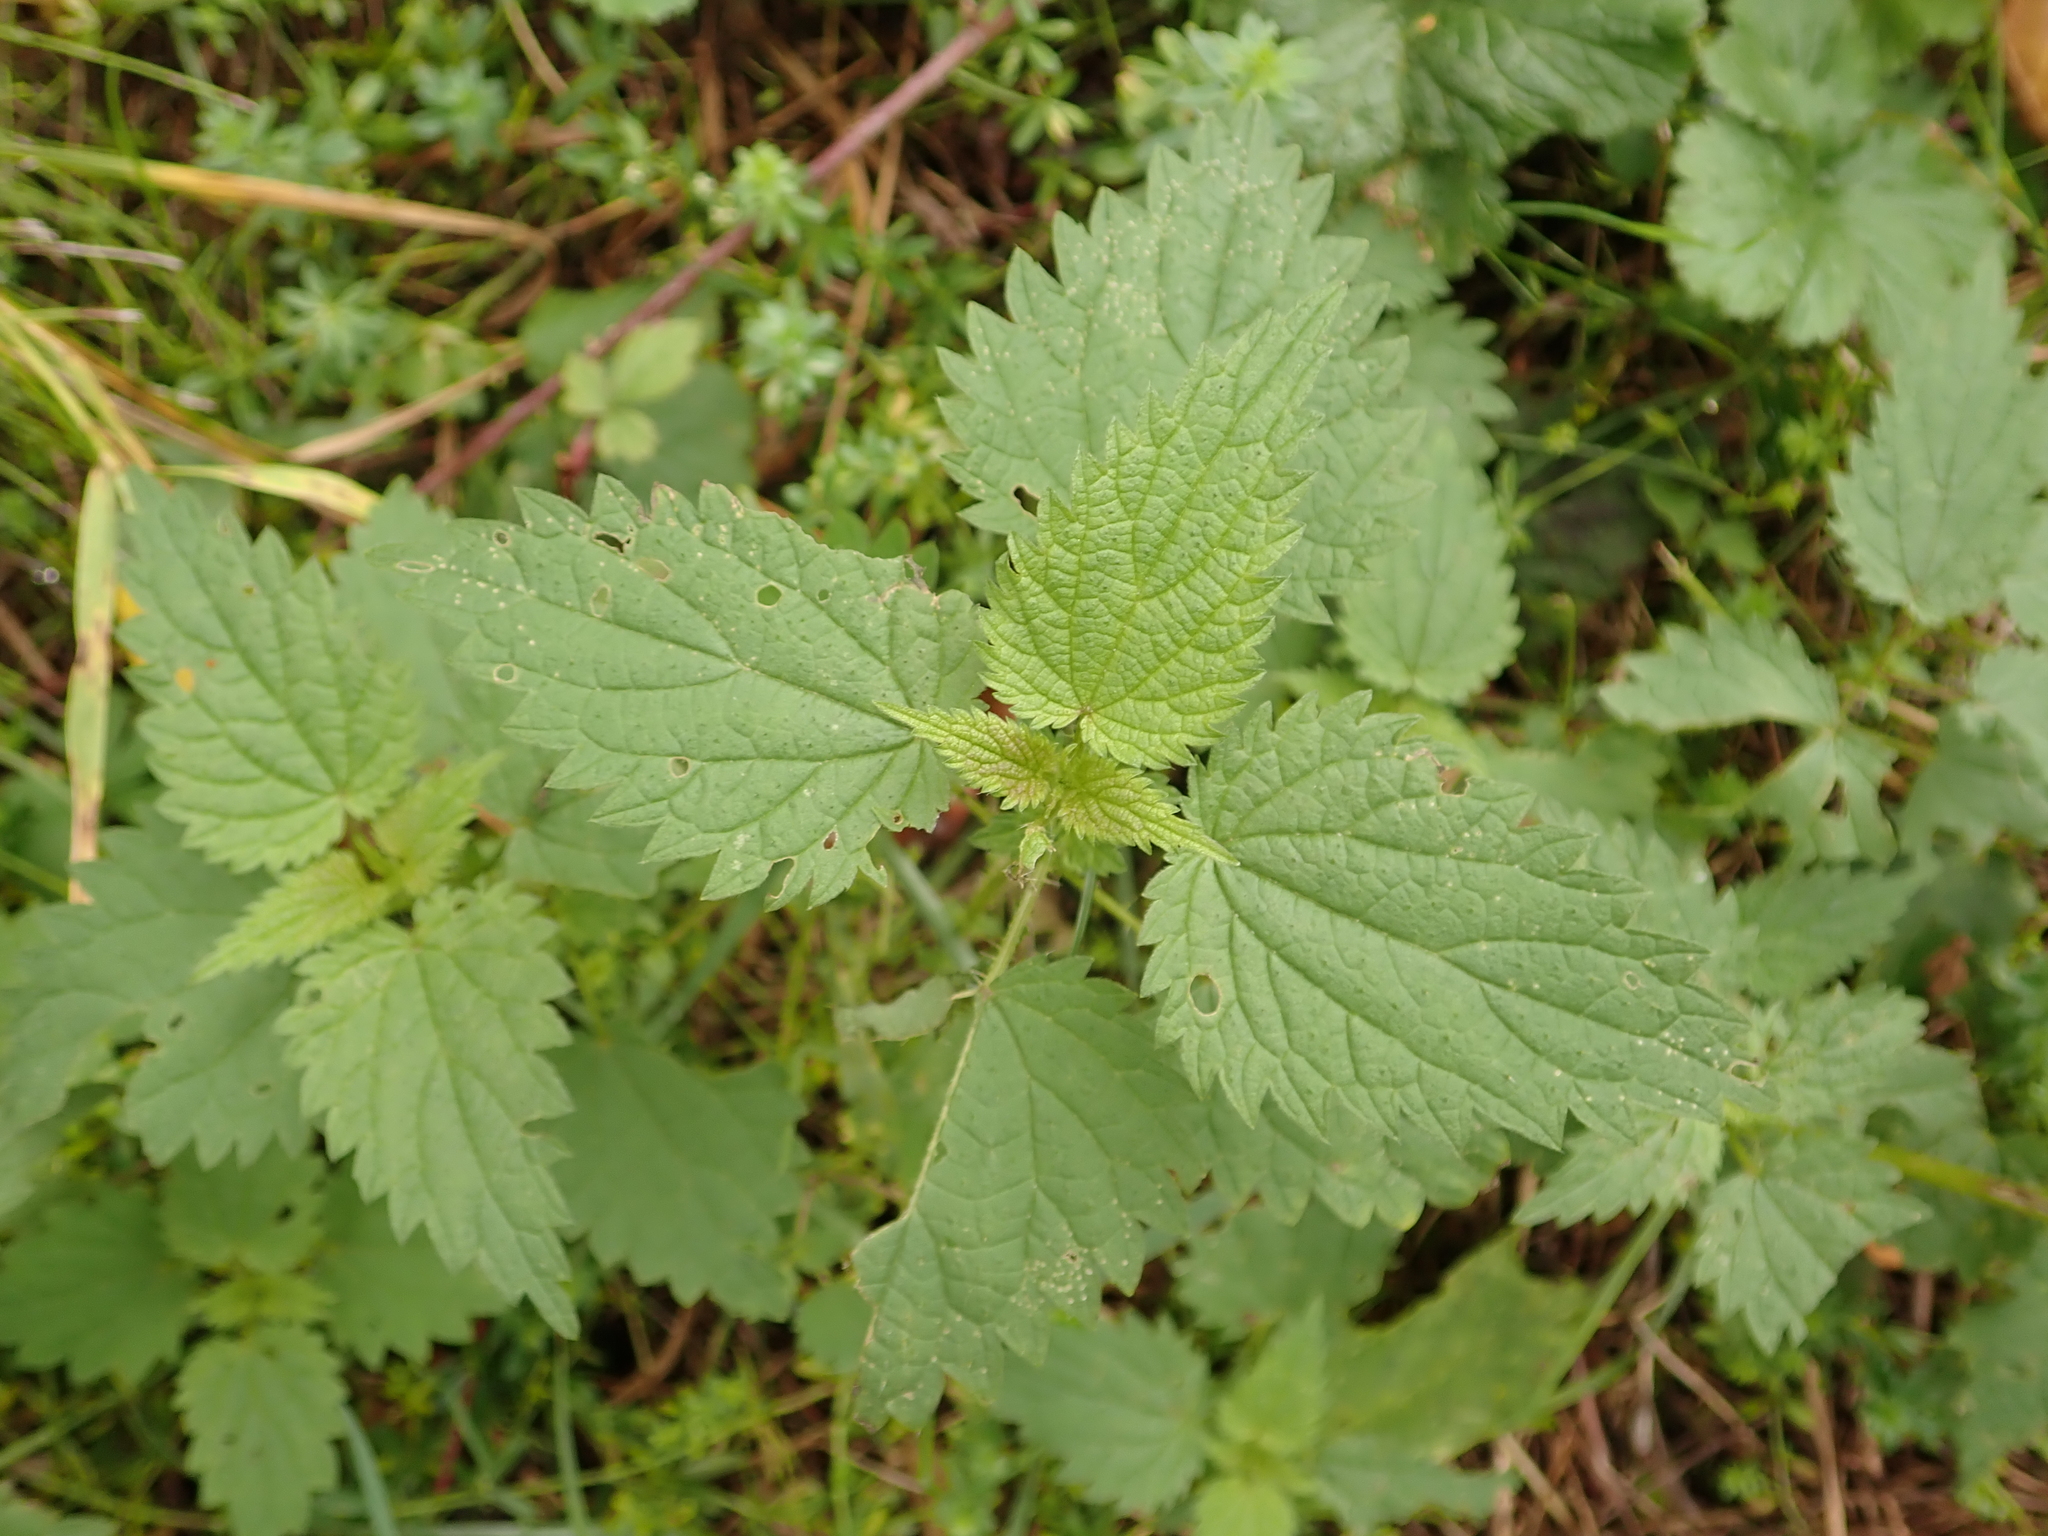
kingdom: Plantae
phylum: Tracheophyta
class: Magnoliopsida
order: Rosales
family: Urticaceae
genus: Urtica
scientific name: Urtica dioica
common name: Common nettle
